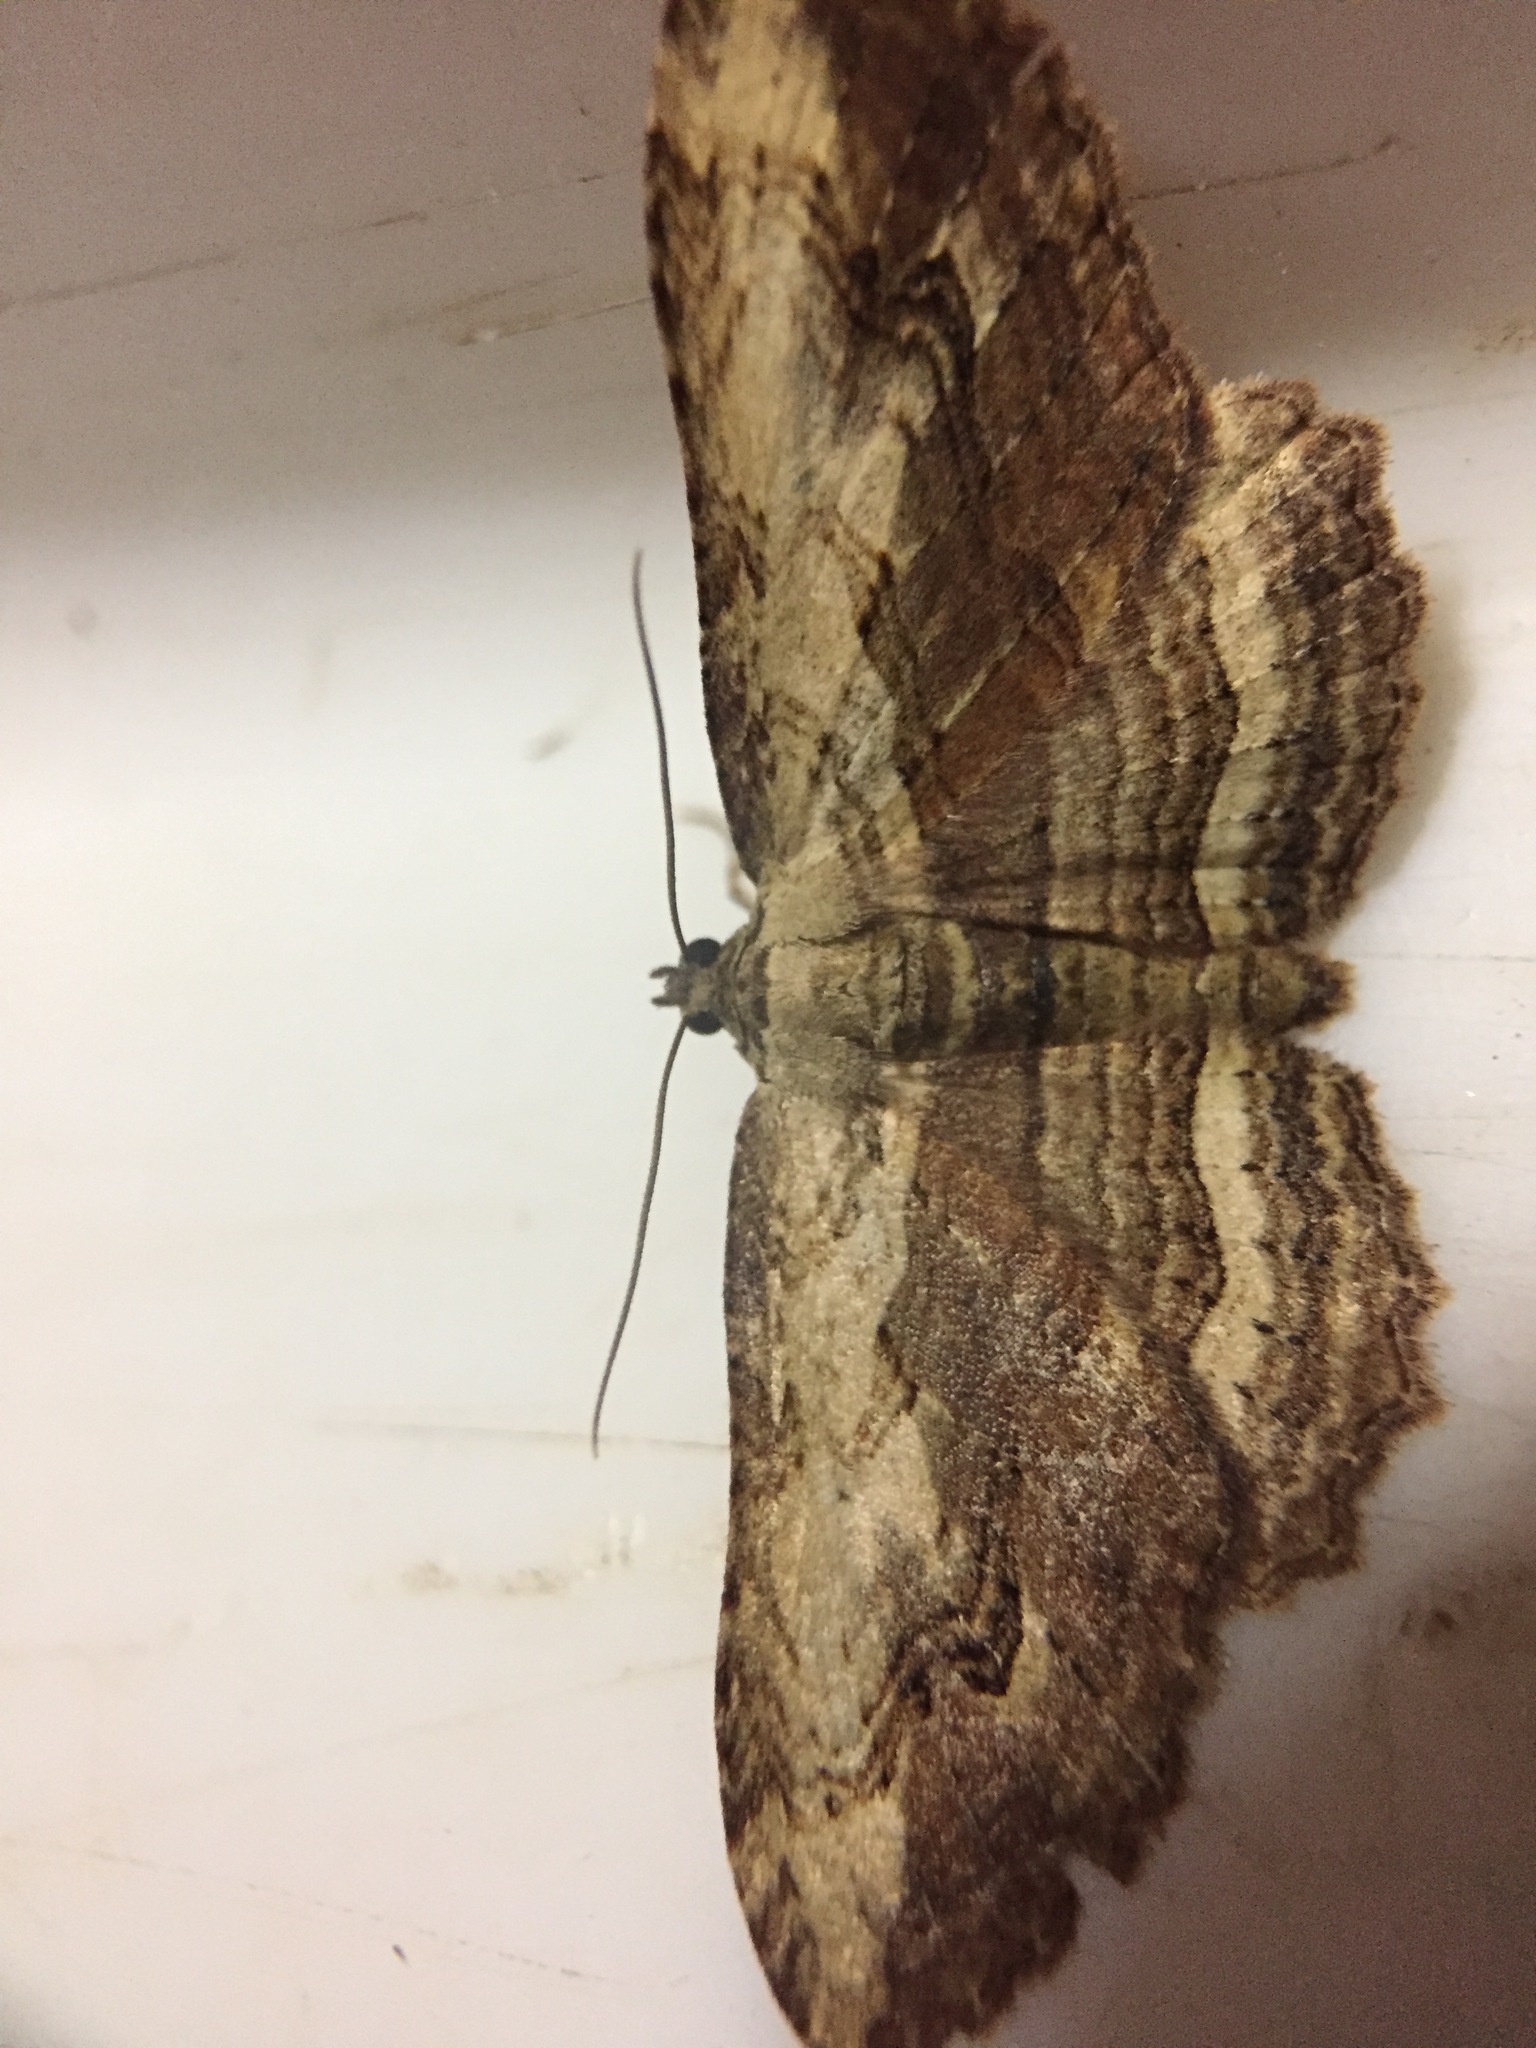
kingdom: Animalia
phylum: Arthropoda
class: Insecta
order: Lepidoptera
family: Geometridae
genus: Austrocidaria
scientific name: Austrocidaria bipartita
